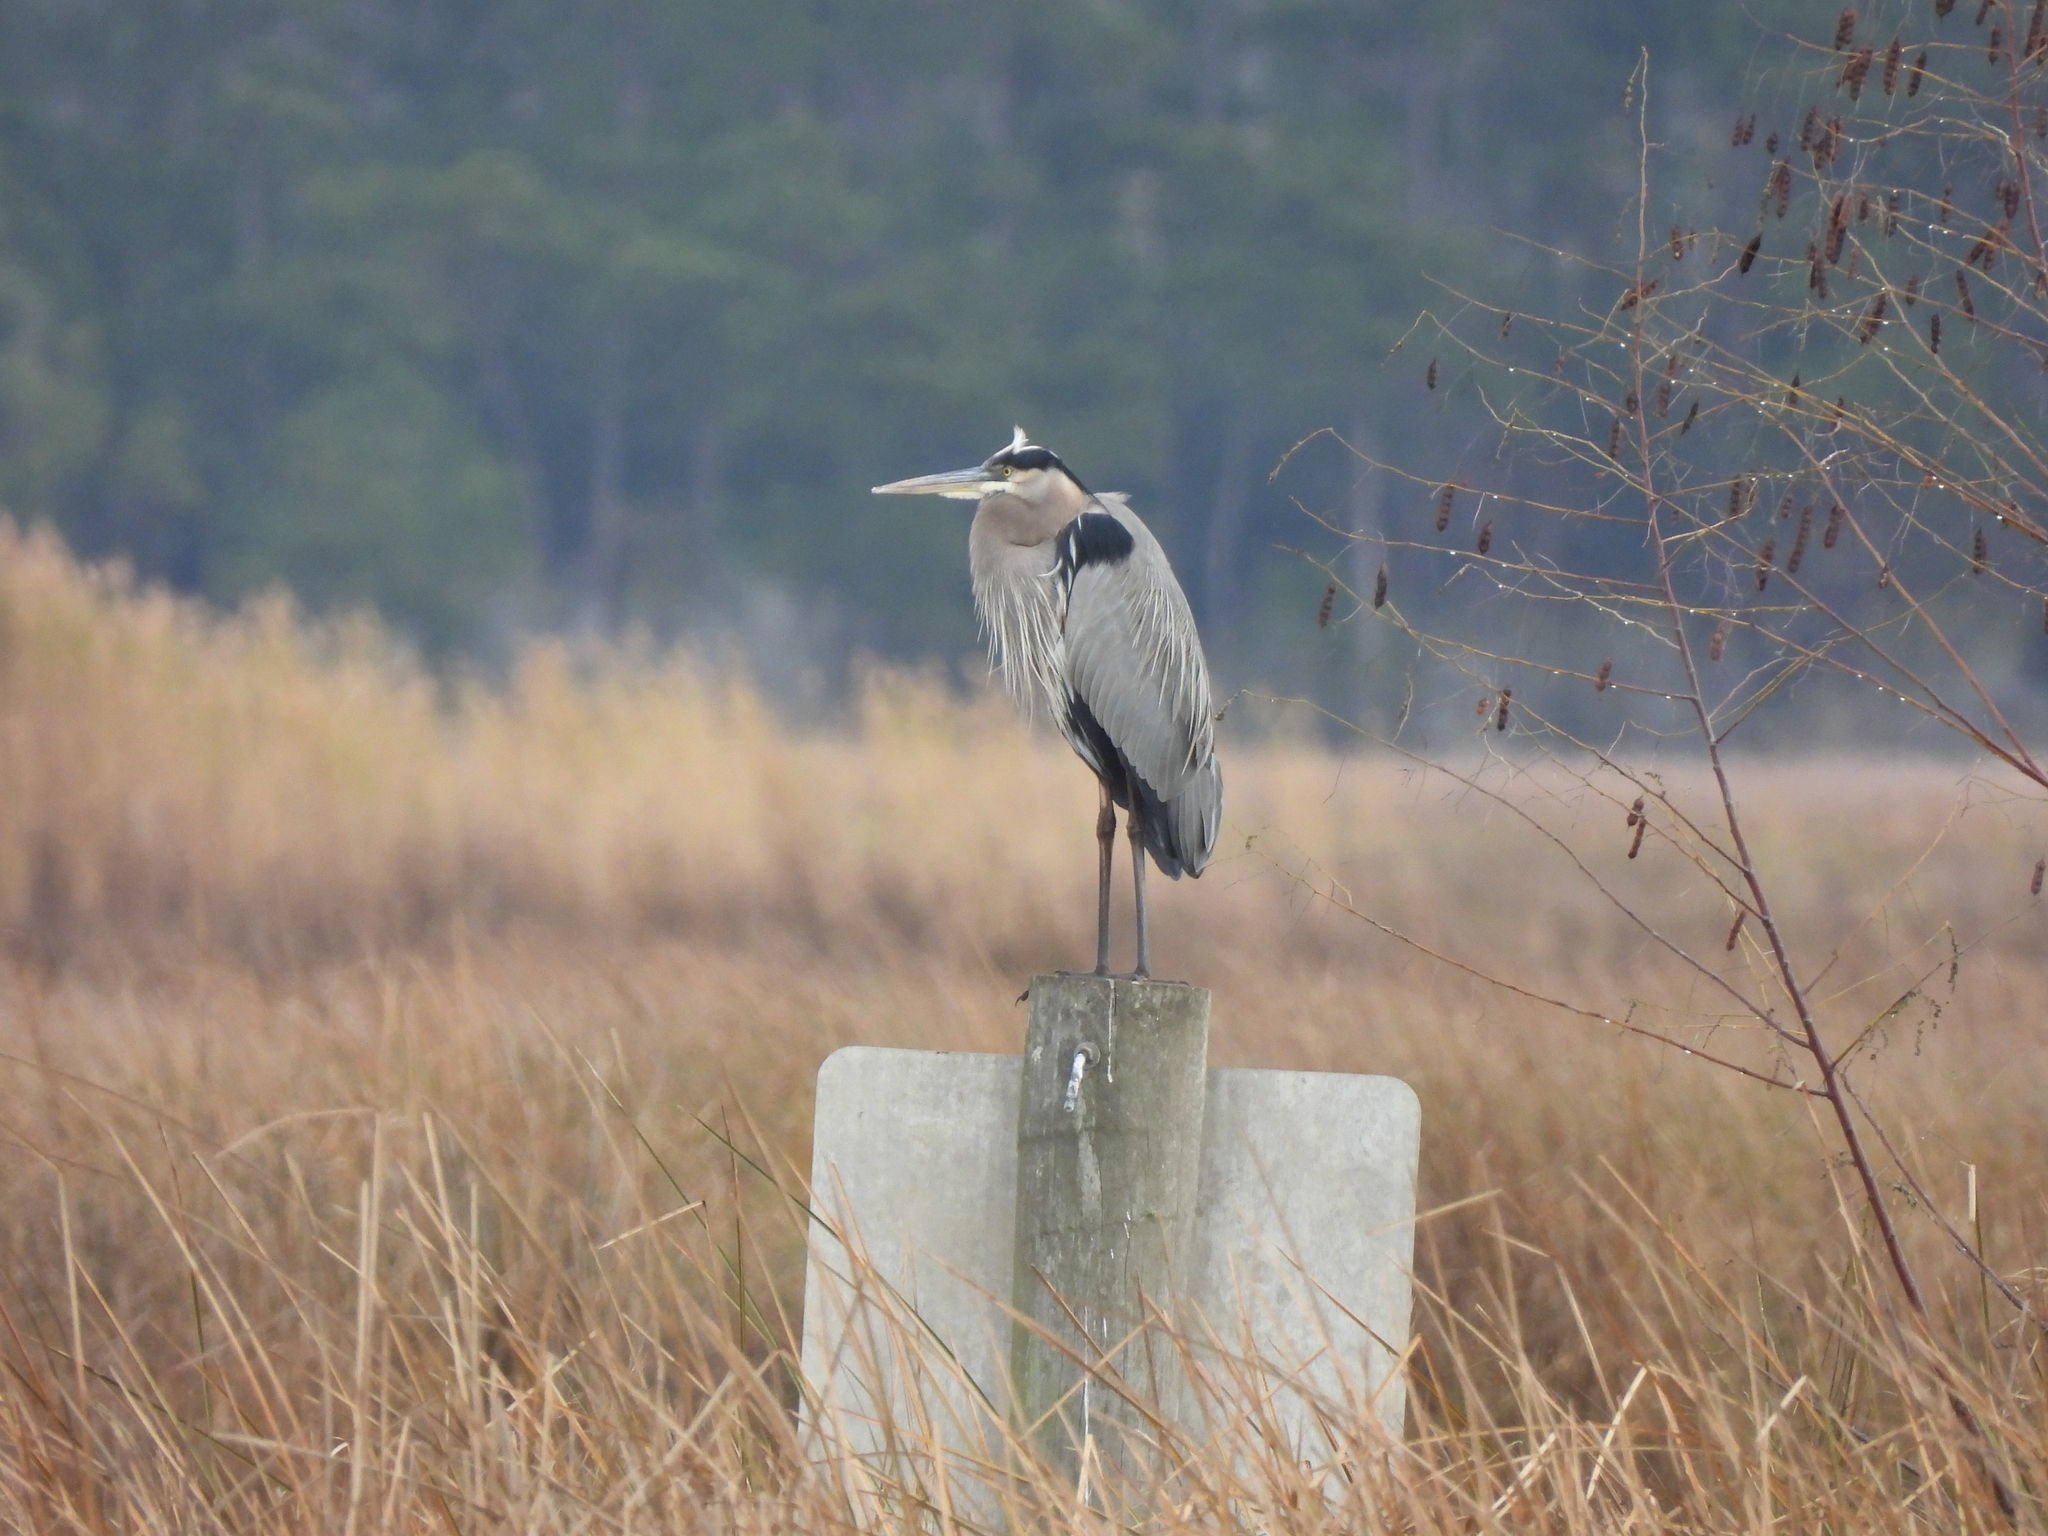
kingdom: Animalia
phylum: Chordata
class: Aves
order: Pelecaniformes
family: Ardeidae
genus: Ardea
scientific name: Ardea herodias
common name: Great blue heron
